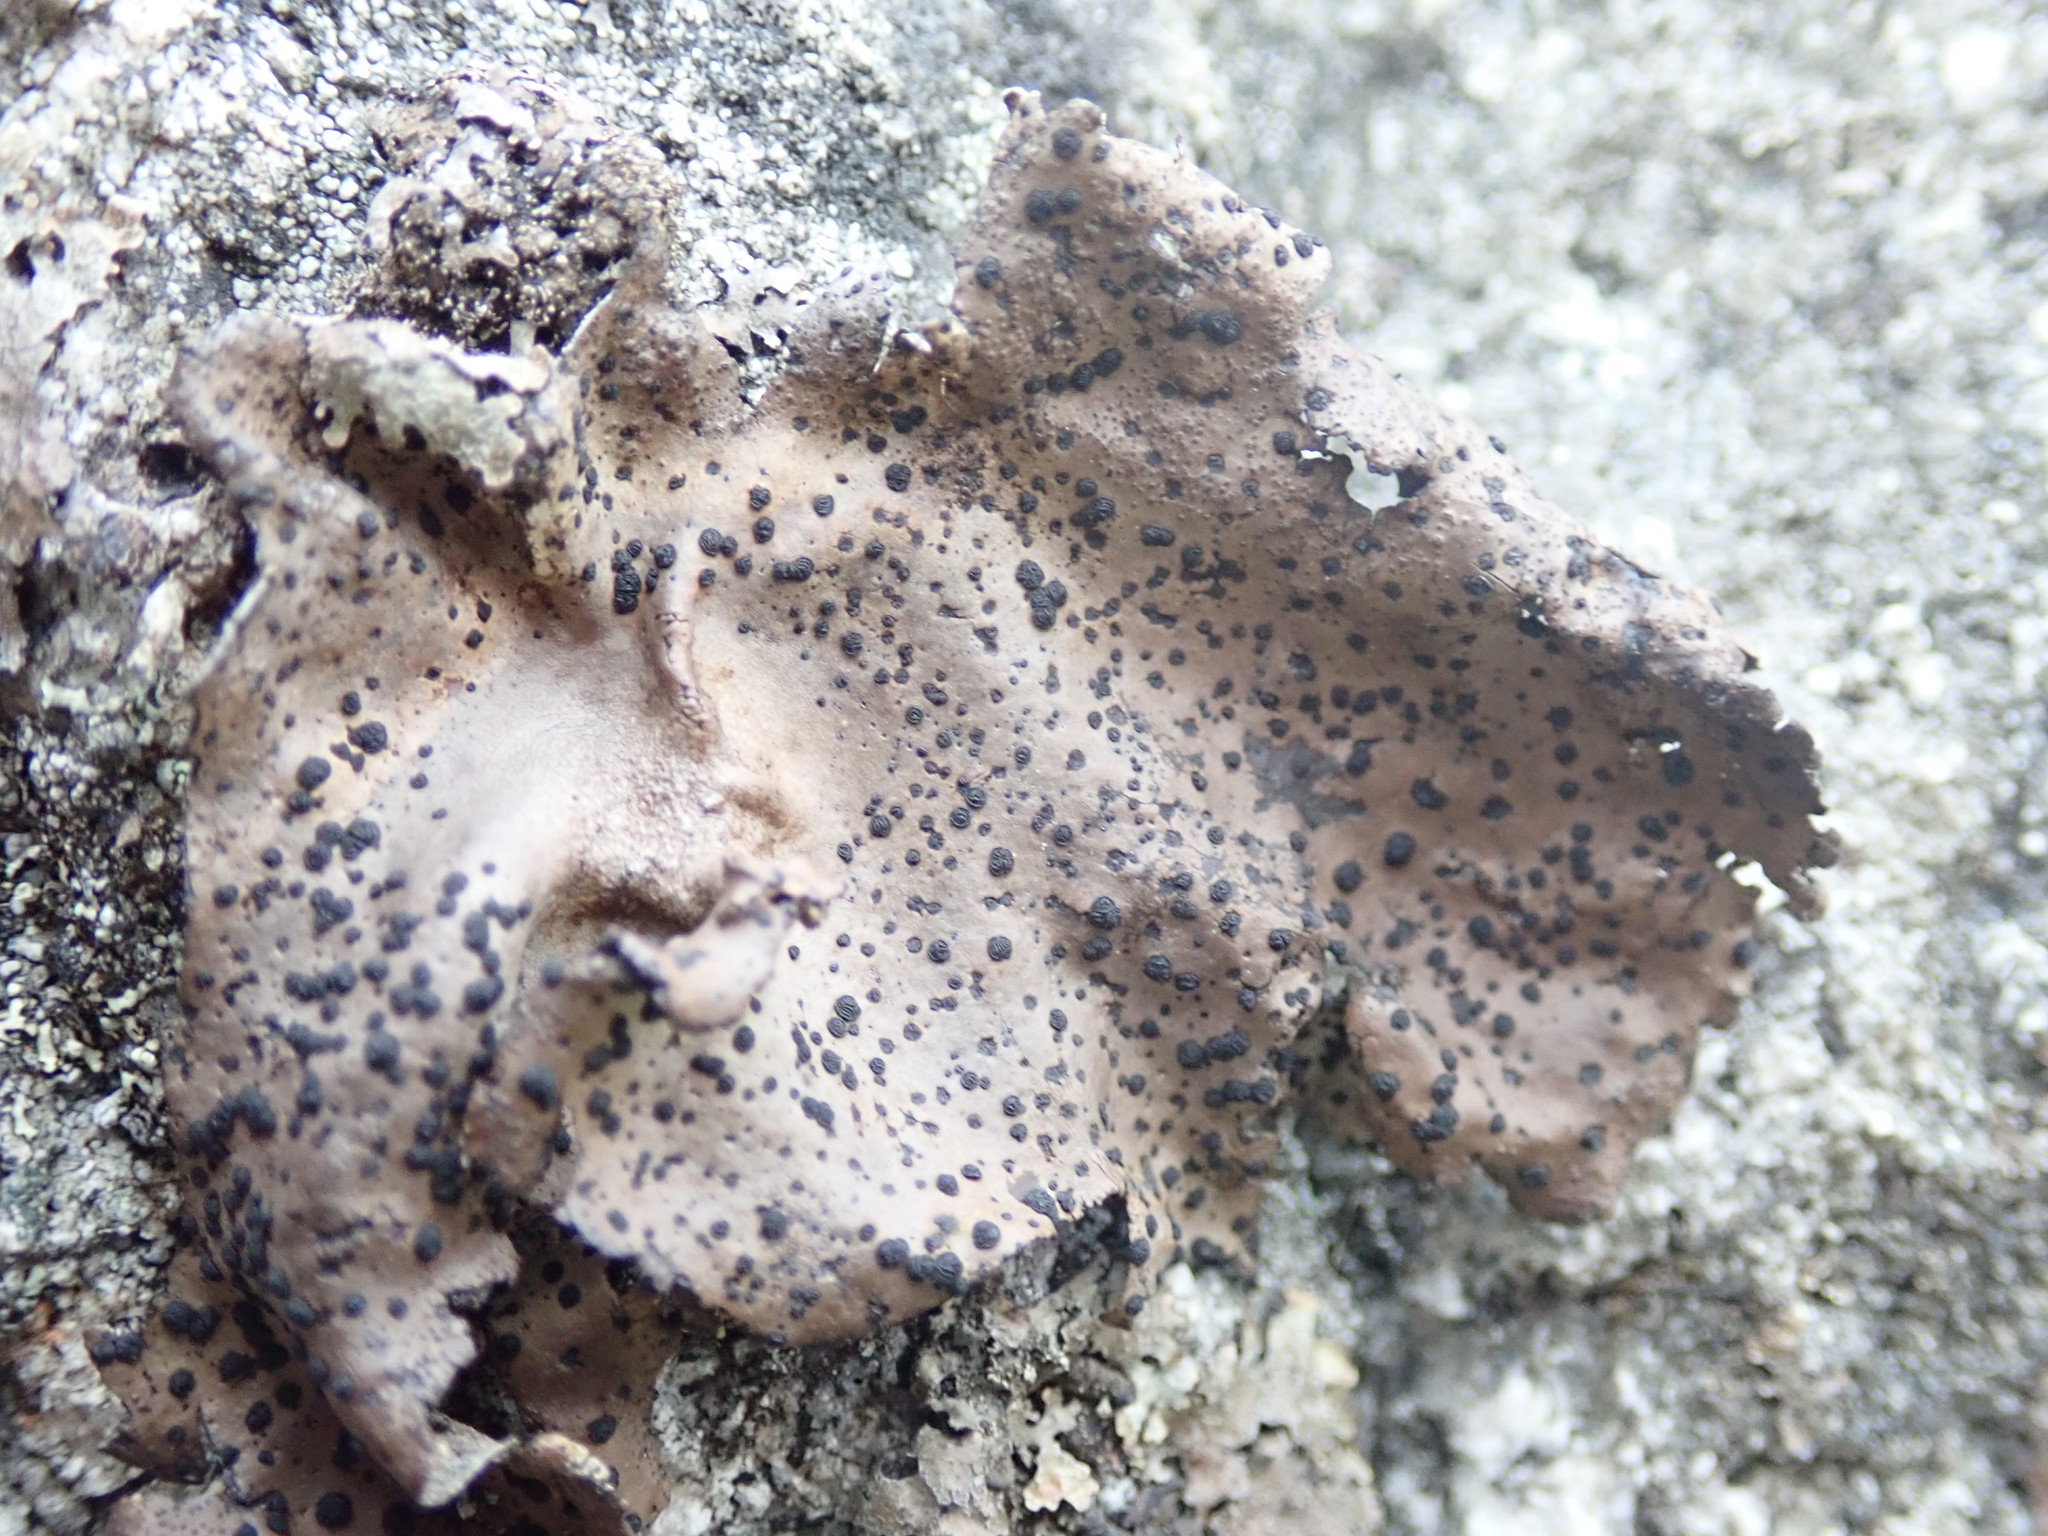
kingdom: Fungi
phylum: Ascomycota
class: Lecanoromycetes
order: Umbilicariales
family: Umbilicariaceae
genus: Umbilicaria
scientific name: Umbilicaria phaea
